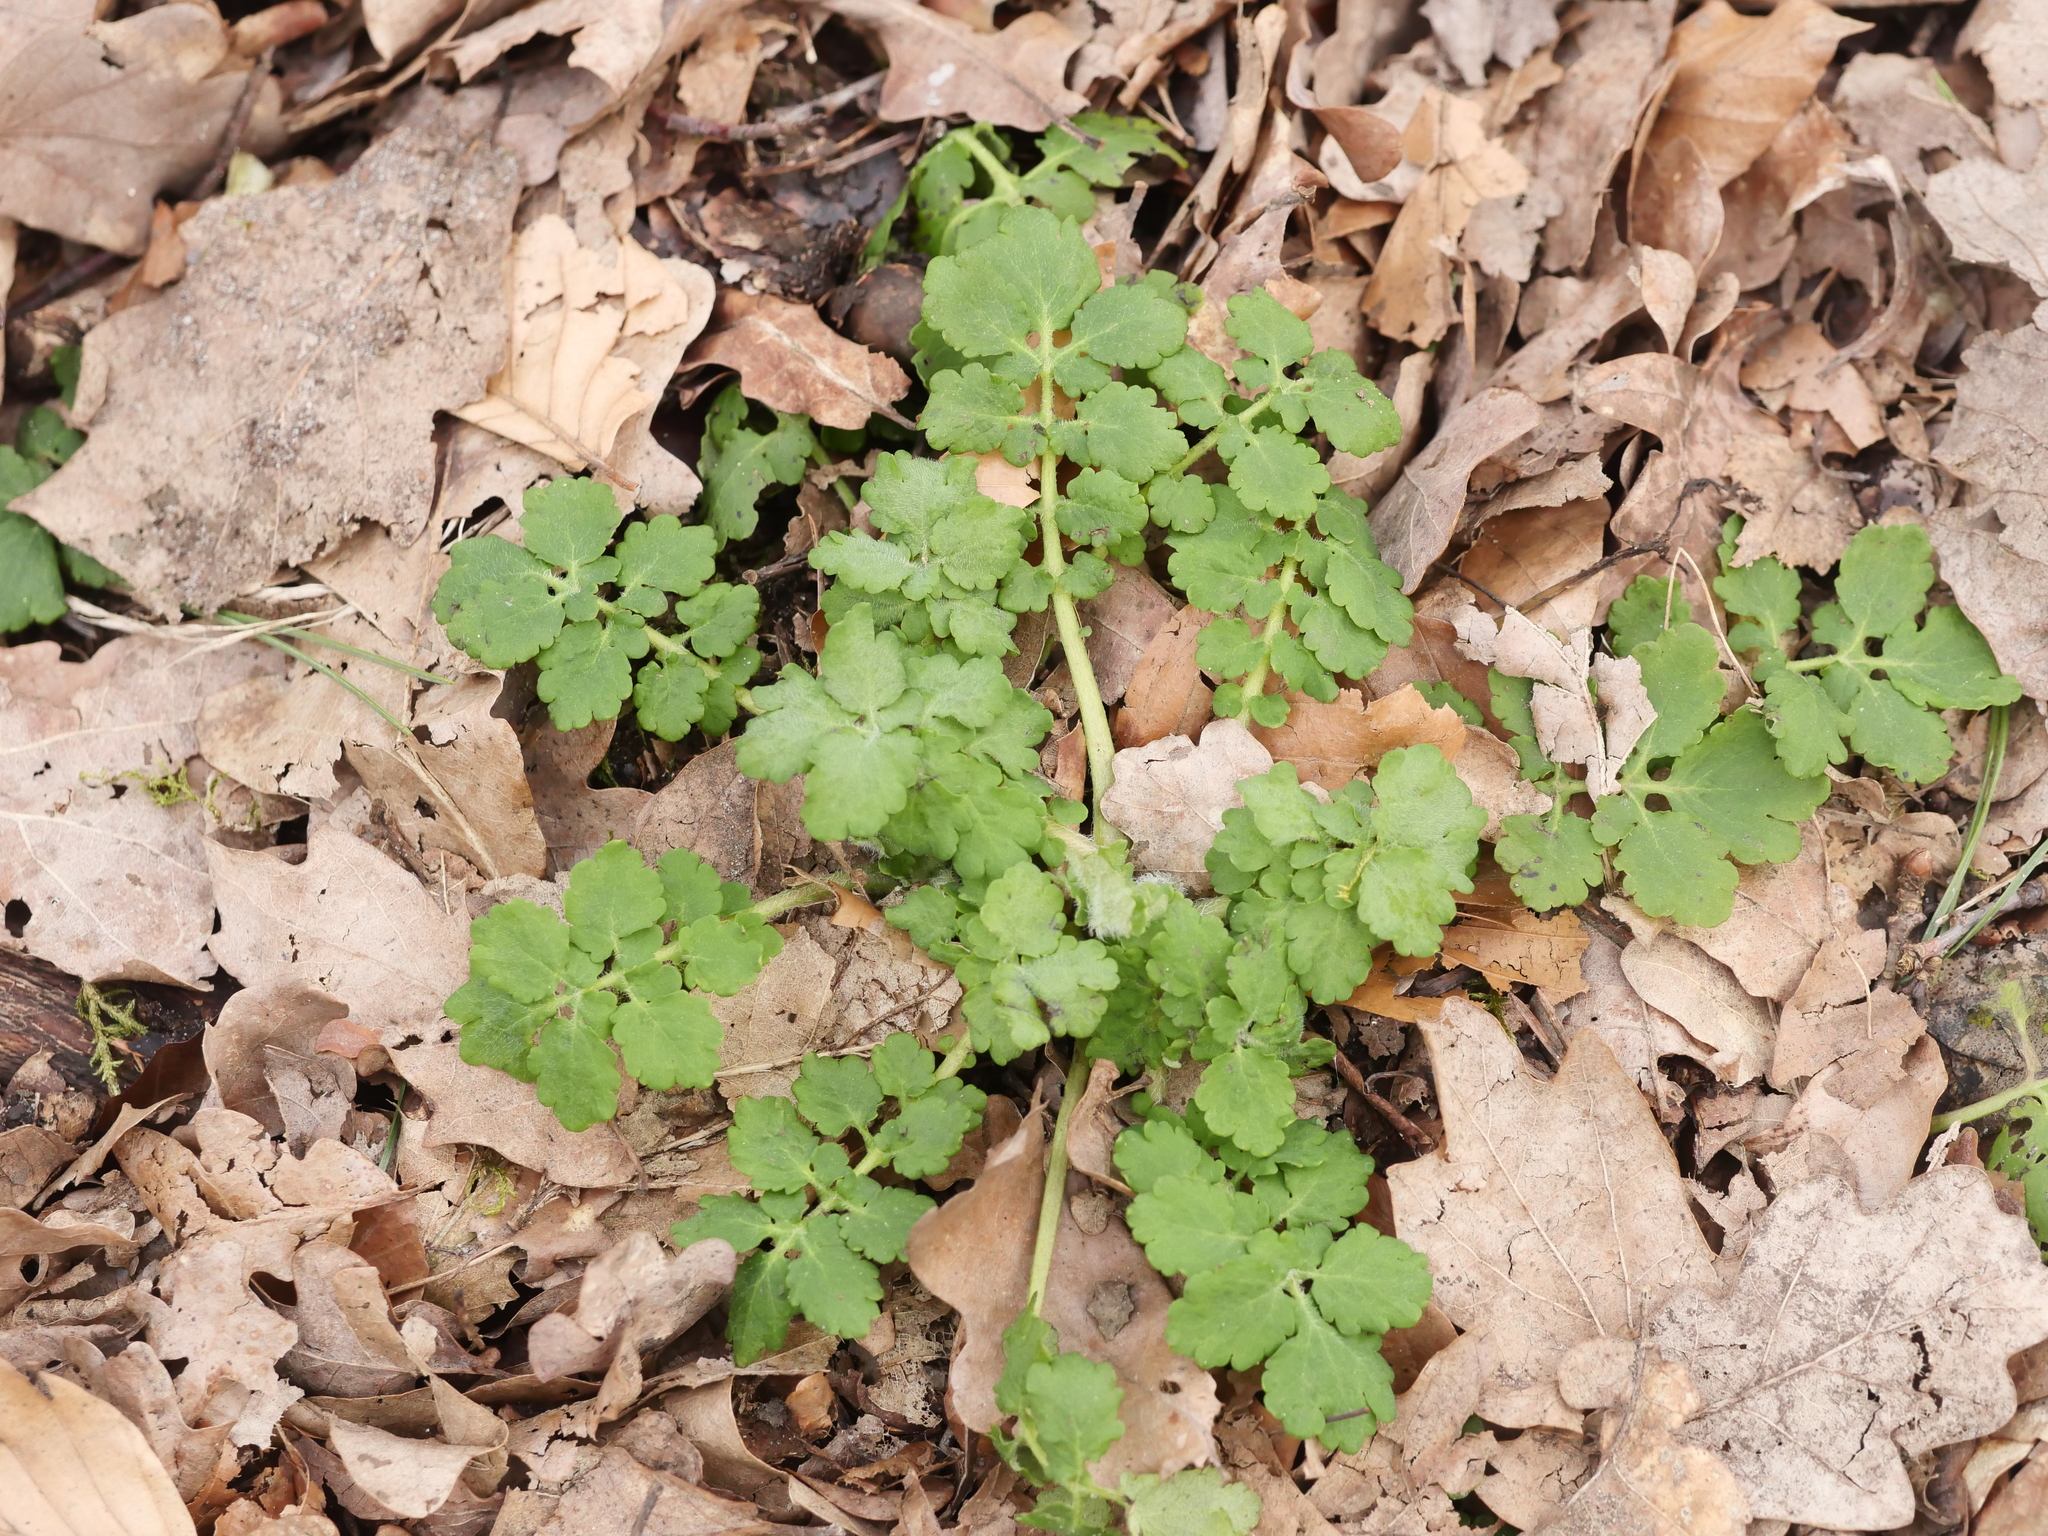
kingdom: Plantae
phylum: Tracheophyta
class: Magnoliopsida
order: Ranunculales
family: Papaveraceae
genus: Chelidonium
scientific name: Chelidonium majus
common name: Greater celandine
